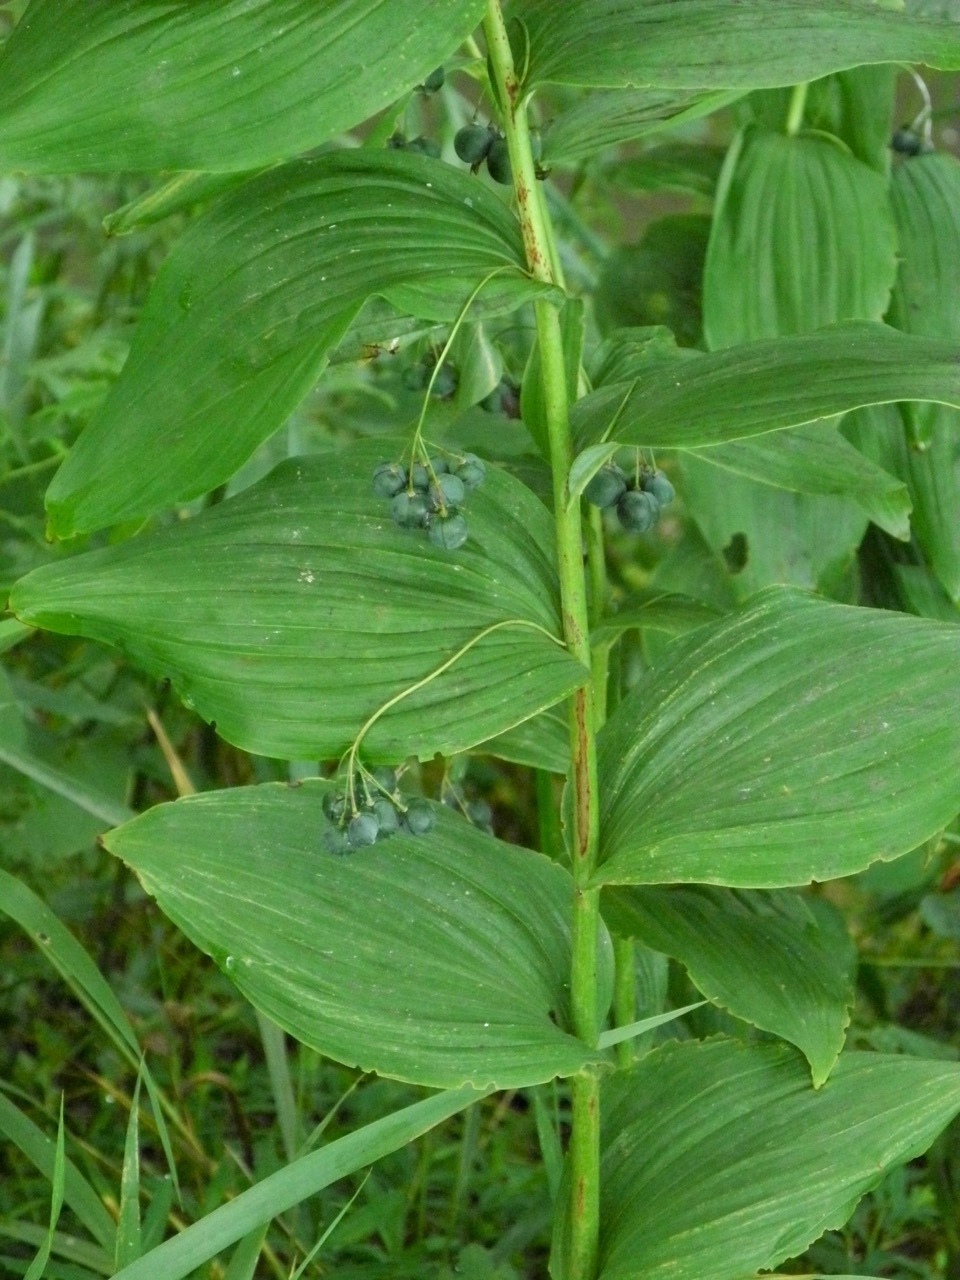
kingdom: Plantae
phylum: Tracheophyta
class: Liliopsida
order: Asparagales
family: Asparagaceae
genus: Polygonatum
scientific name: Polygonatum biflorum
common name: American solomon's-seal
